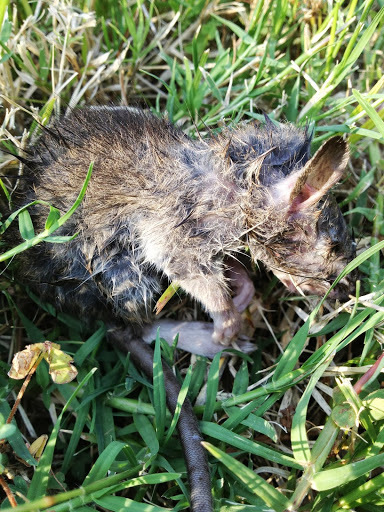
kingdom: Animalia
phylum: Chordata
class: Mammalia
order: Rodentia
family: Muridae
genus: Rattus
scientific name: Rattus rattus
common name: Black rat
